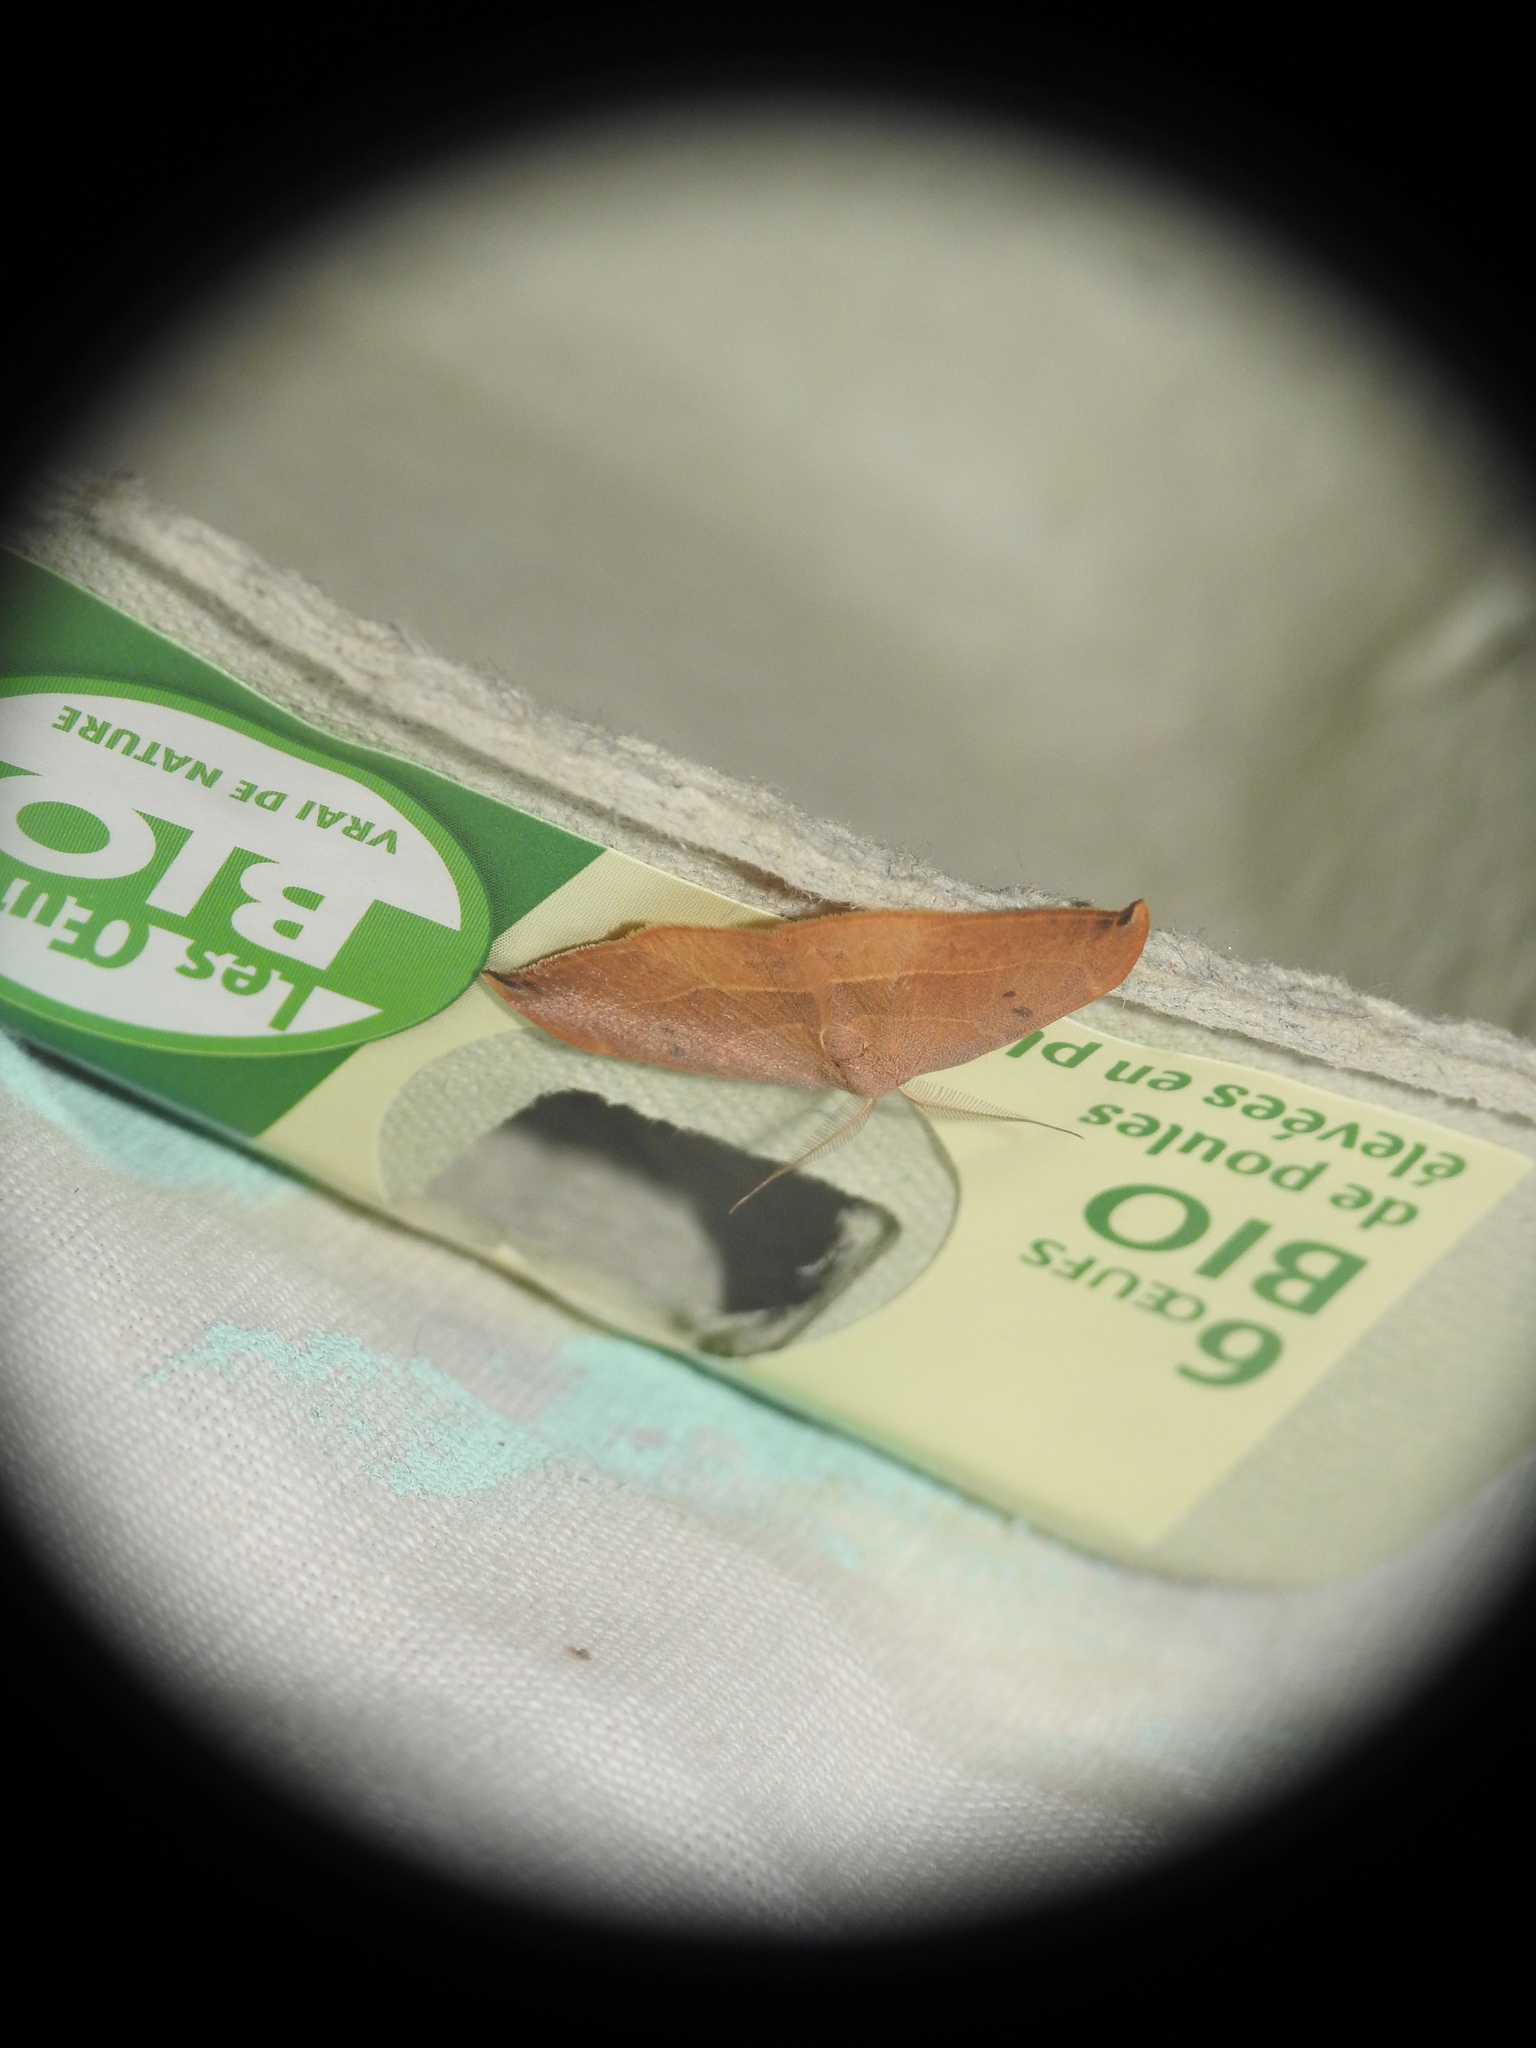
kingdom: Animalia
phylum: Arthropoda
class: Insecta
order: Lepidoptera
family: Drepanidae
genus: Watsonalla
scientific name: Watsonalla uncinula
